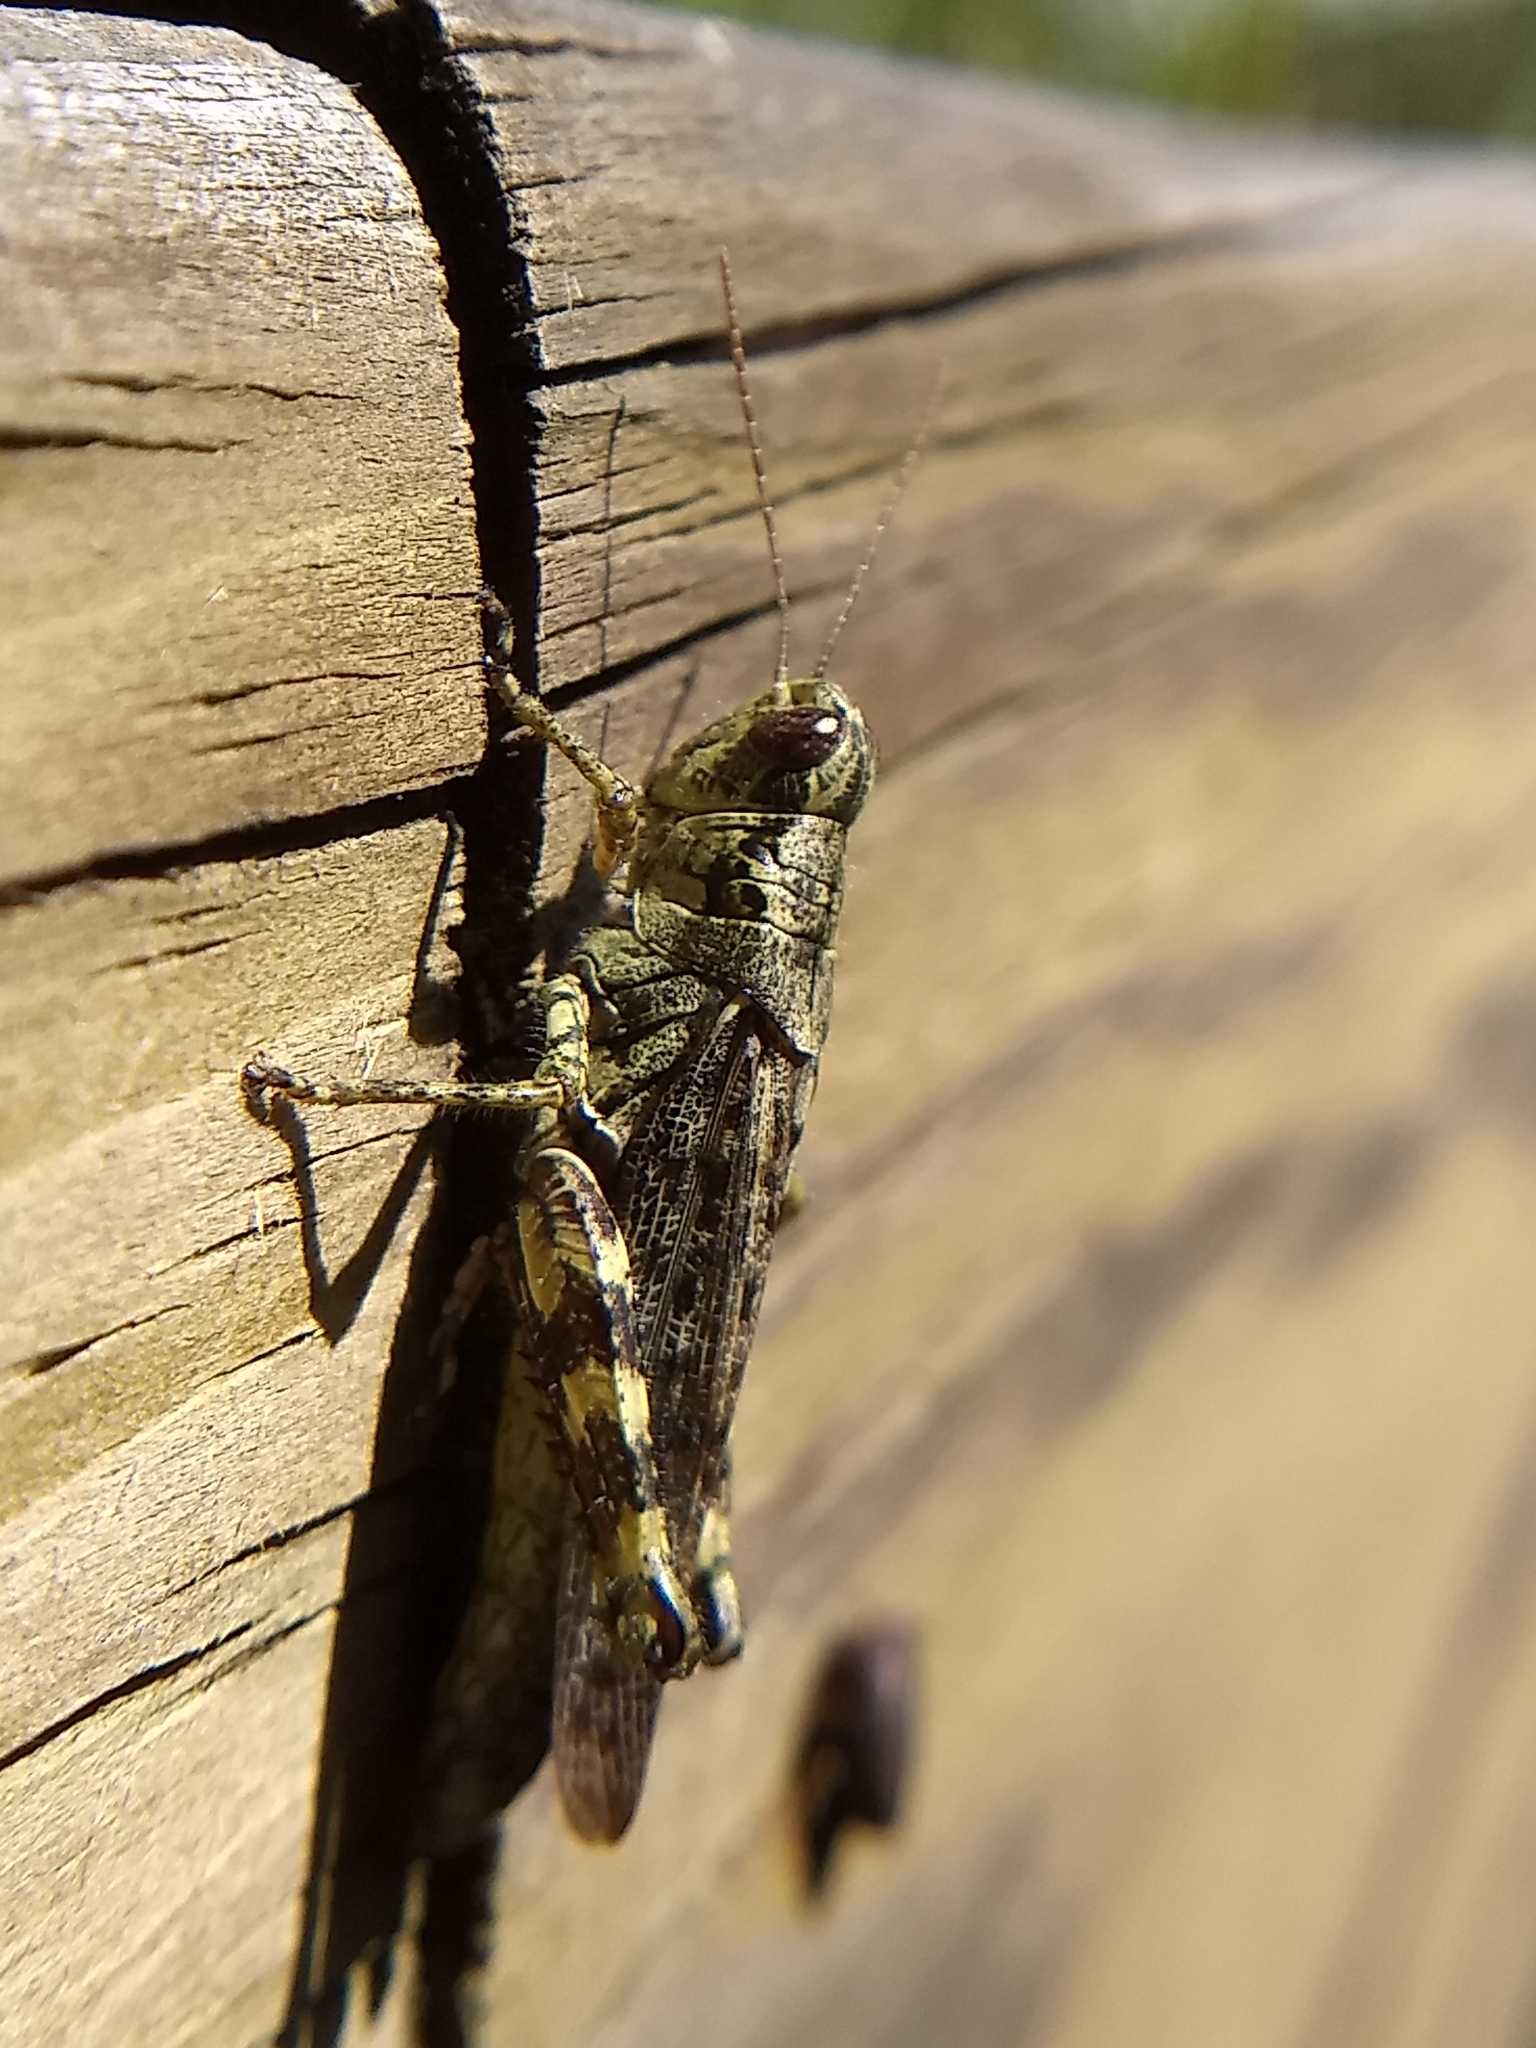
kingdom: Animalia
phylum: Arthropoda
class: Insecta
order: Orthoptera
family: Acrididae
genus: Melanoplus
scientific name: Melanoplus punctulatus
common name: Pine-tree spur-throat grasshopper
